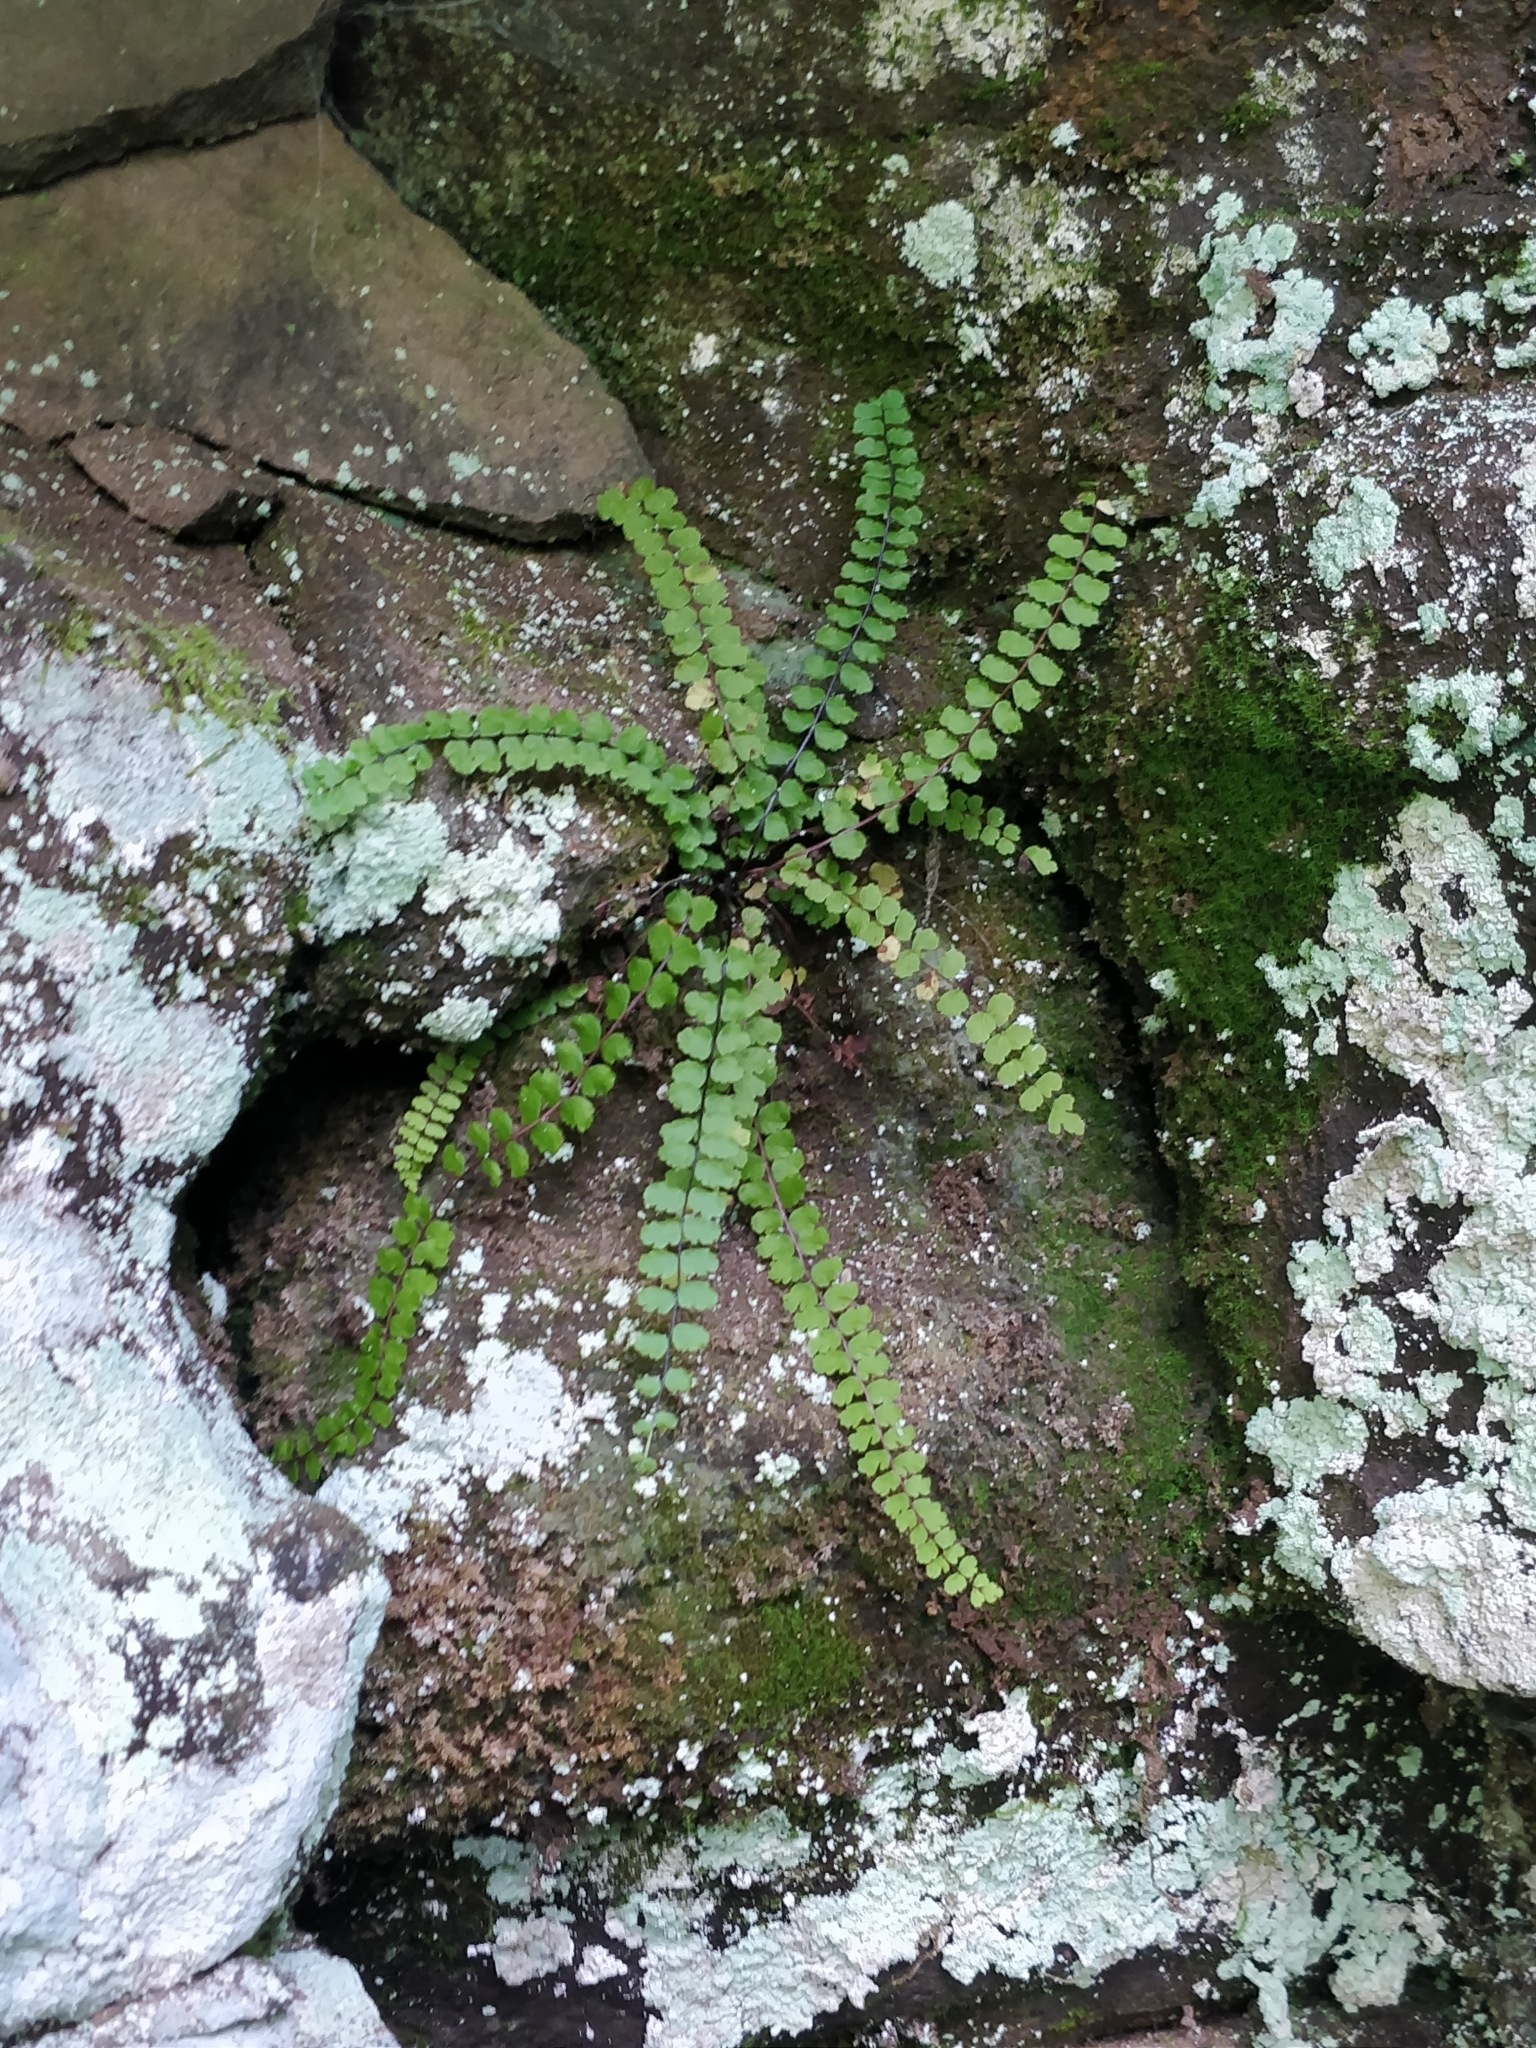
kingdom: Plantae
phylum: Tracheophyta
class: Polypodiopsida
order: Polypodiales
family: Aspleniaceae
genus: Asplenium
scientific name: Asplenium trichomanes
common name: Maidenhair spleenwort
